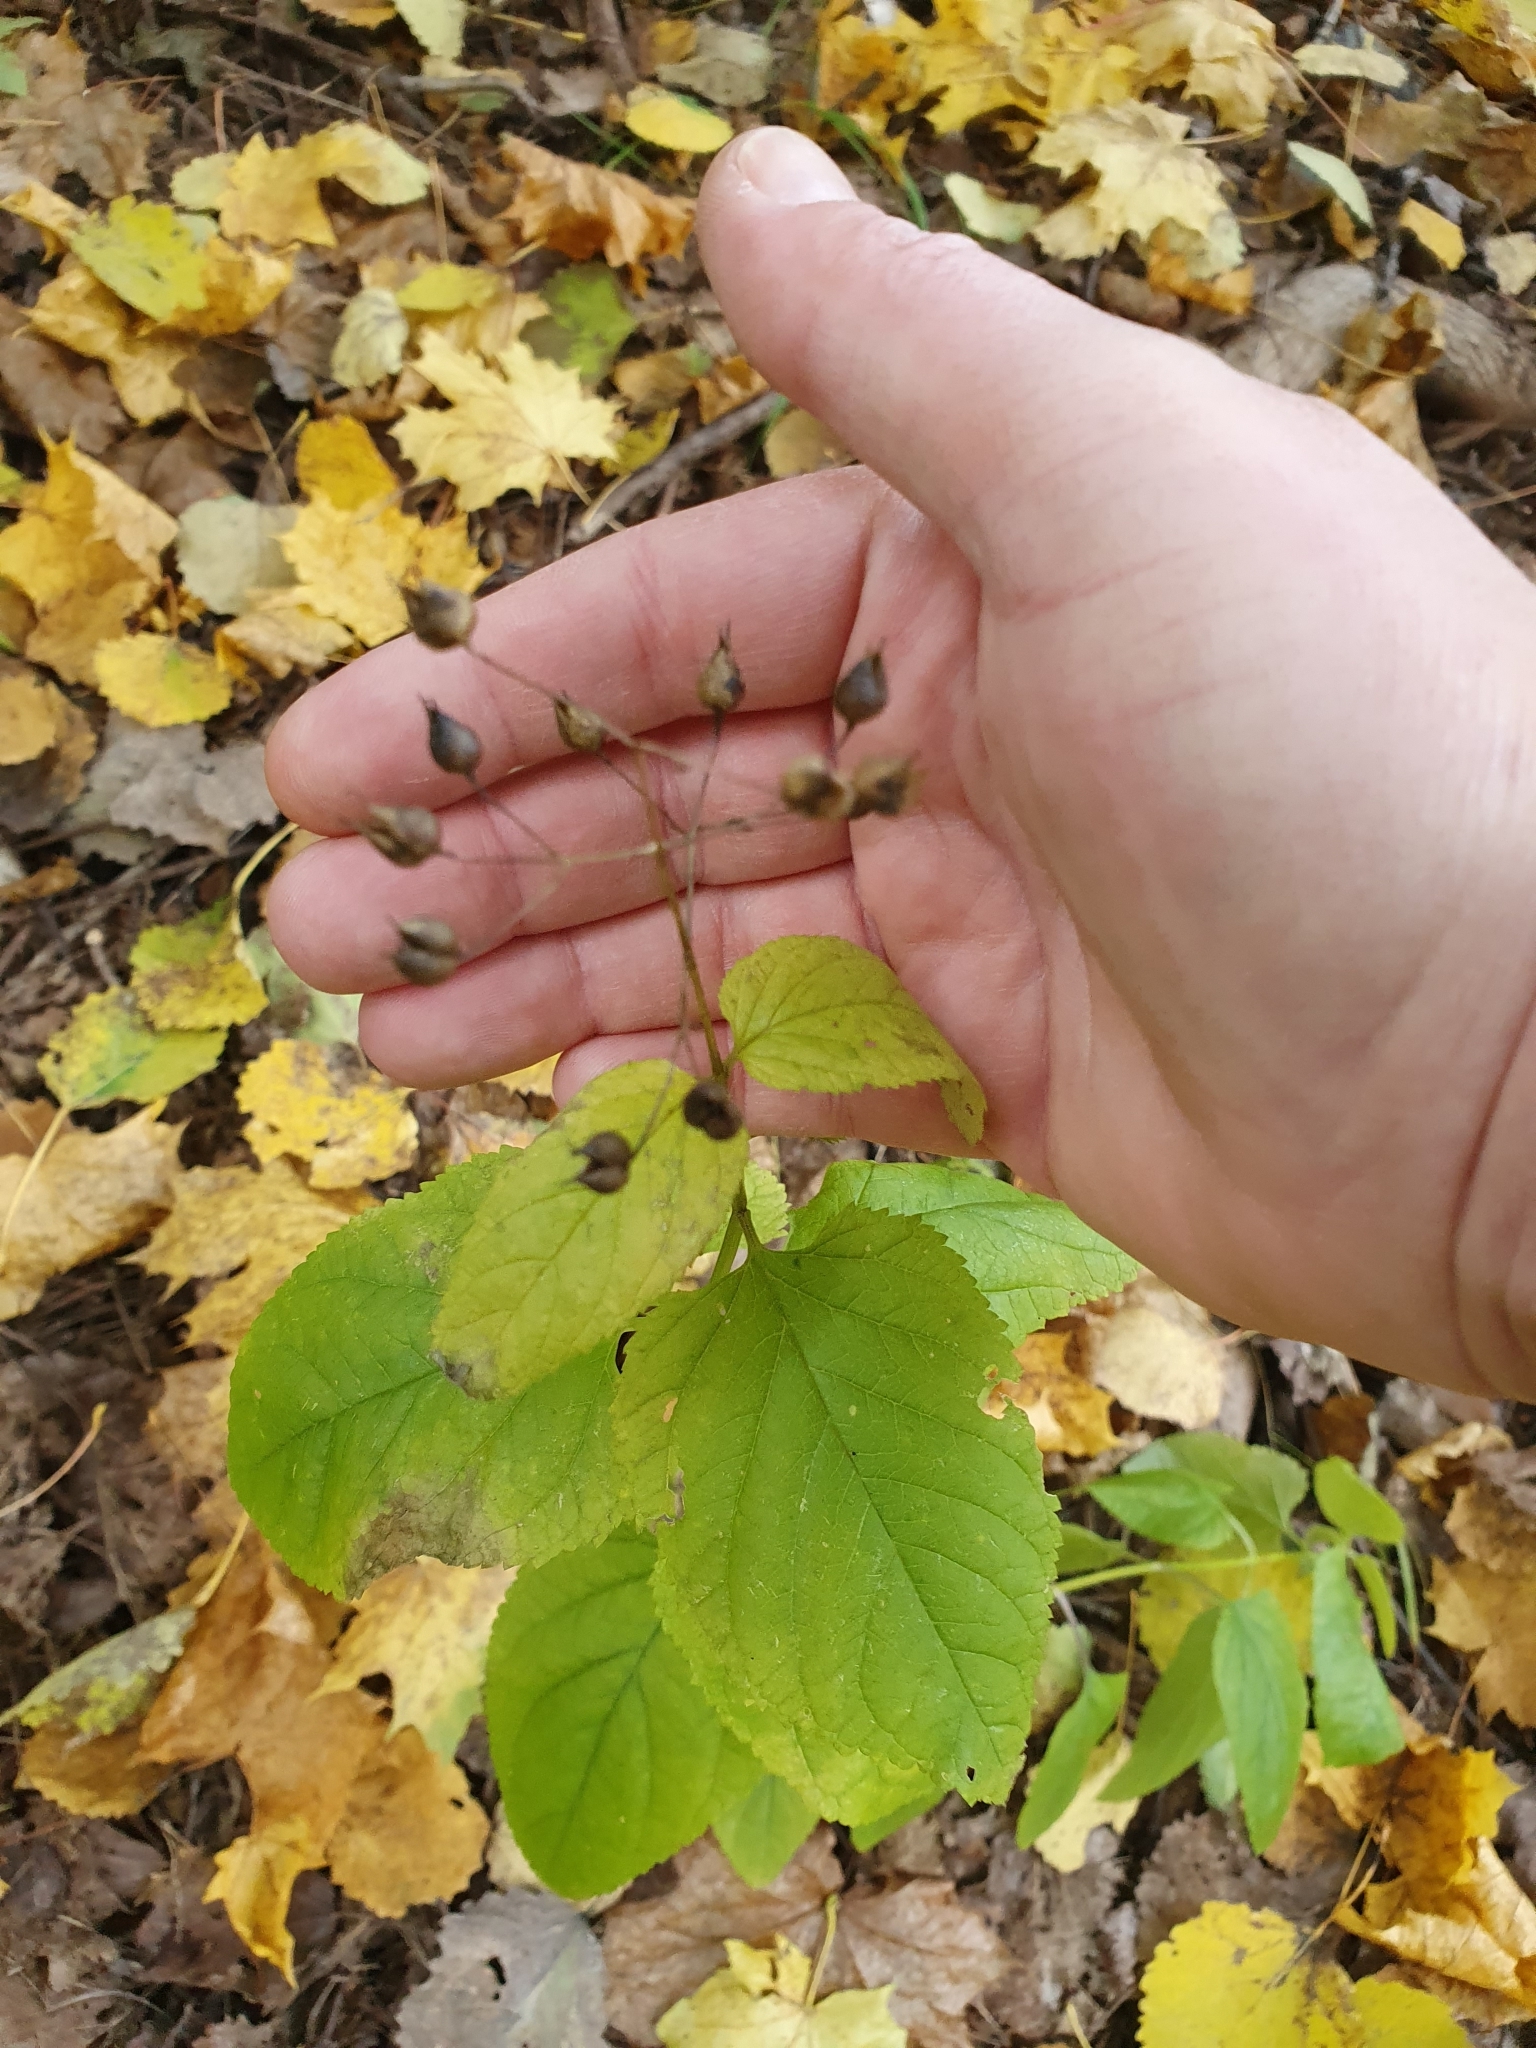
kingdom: Plantae
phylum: Tracheophyta
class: Magnoliopsida
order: Lamiales
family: Scrophulariaceae
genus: Scrophularia
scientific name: Scrophularia nodosa
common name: Common figwort
